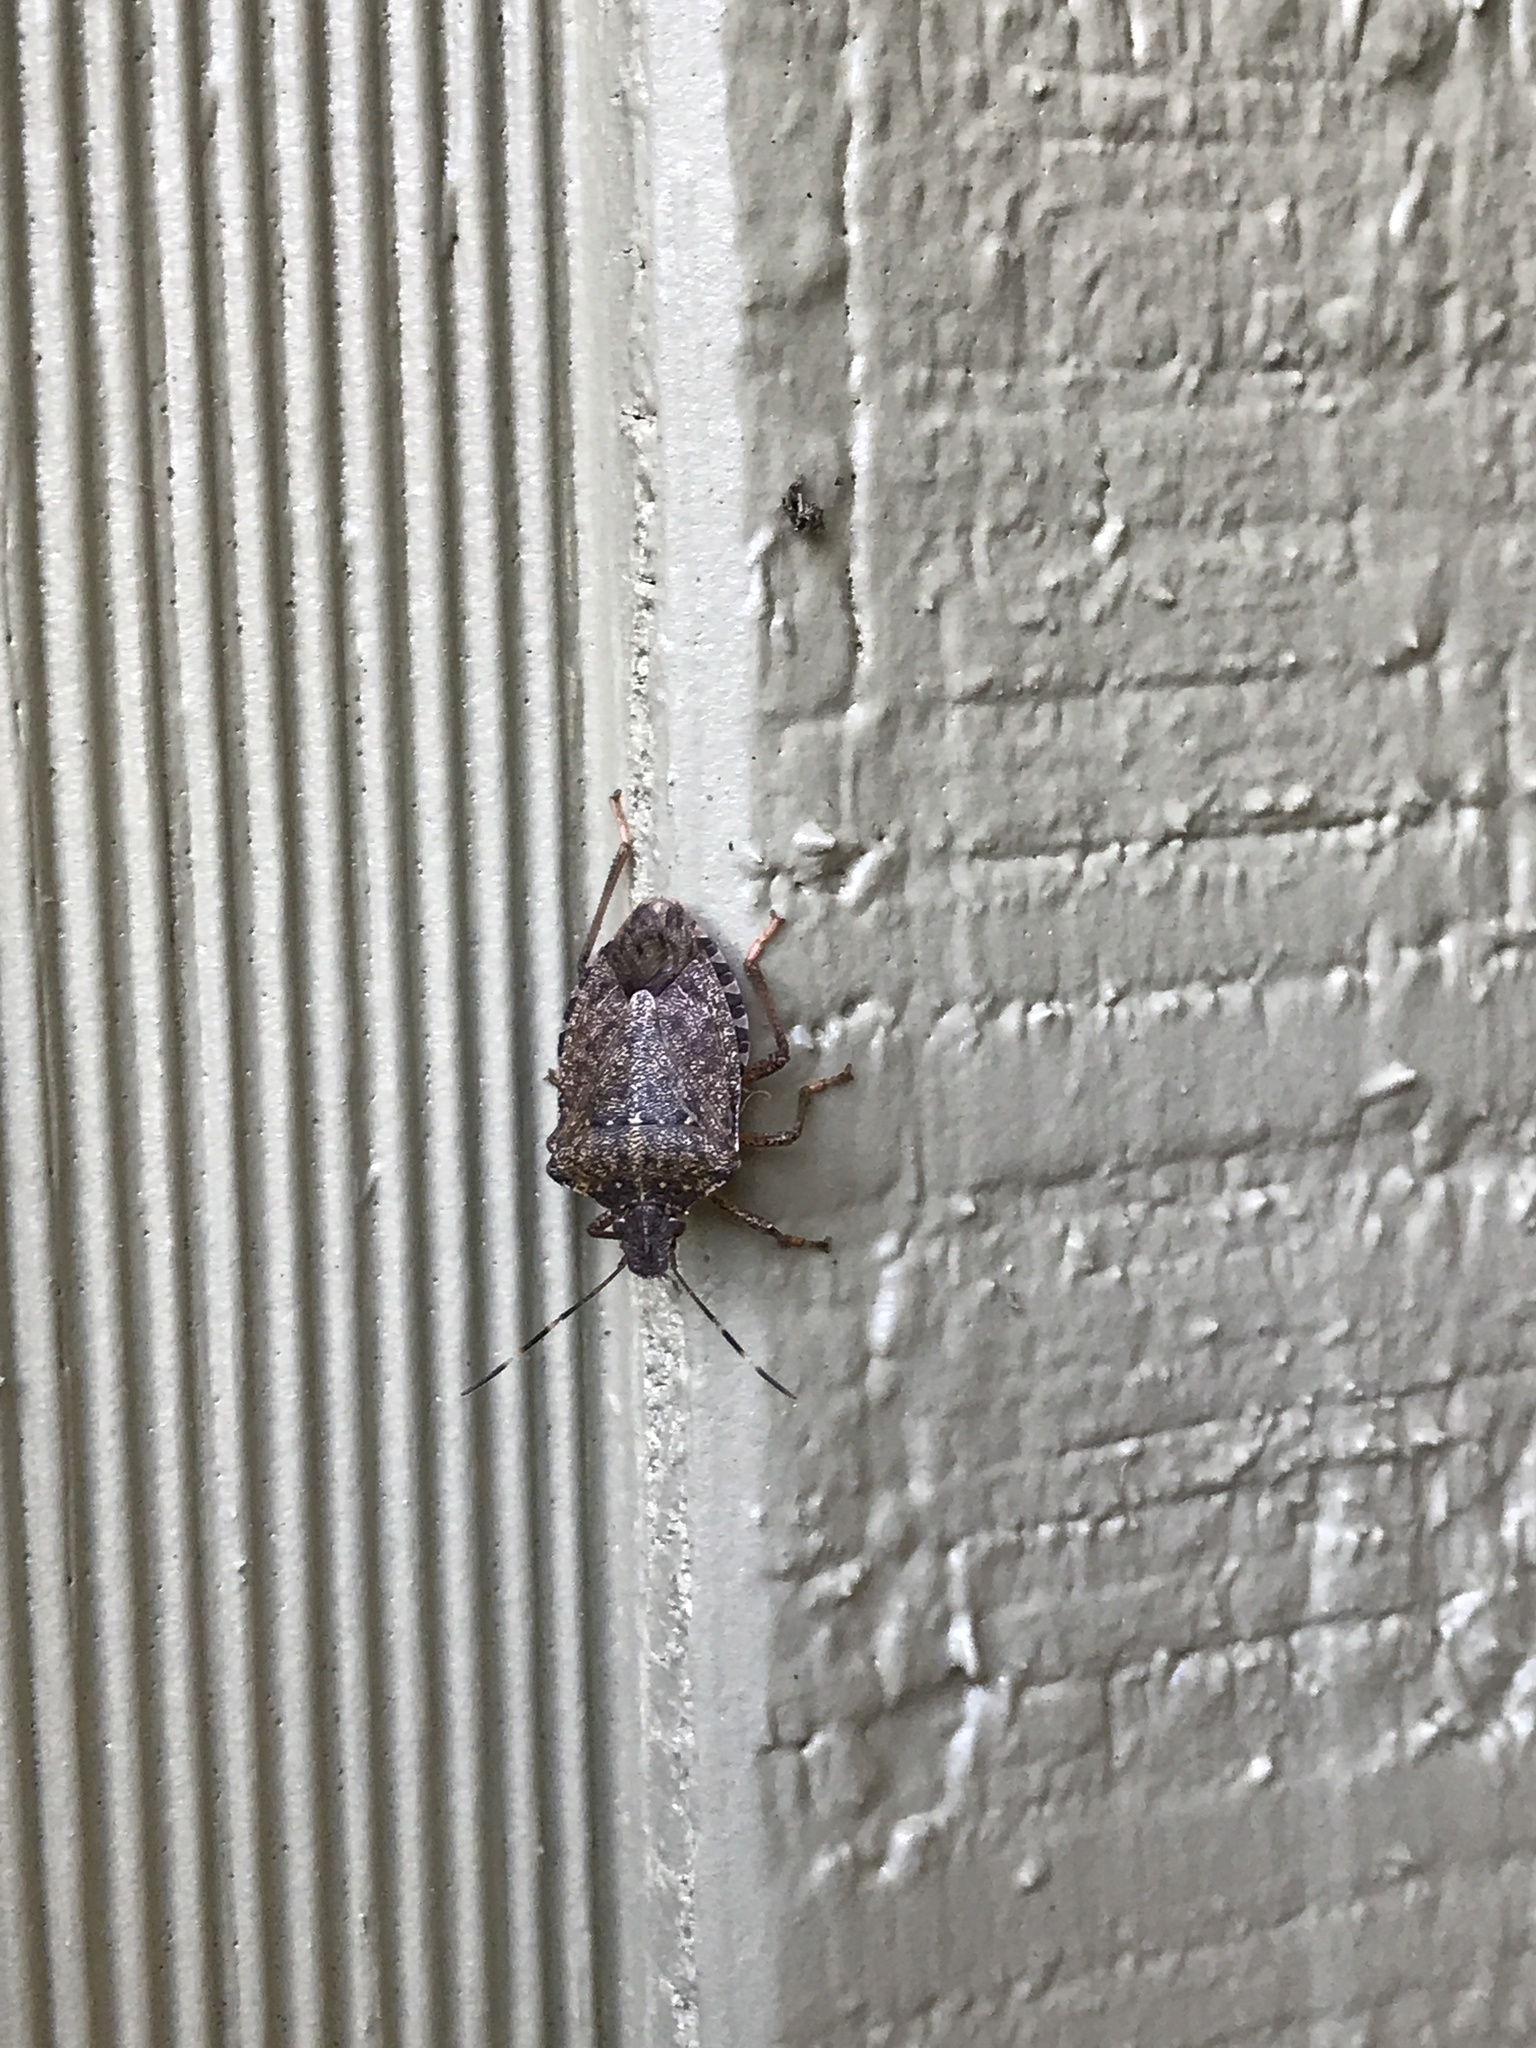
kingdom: Animalia
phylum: Arthropoda
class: Insecta
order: Hemiptera
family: Pentatomidae
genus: Halyomorpha
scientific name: Halyomorpha halys
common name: Brown marmorated stink bug
